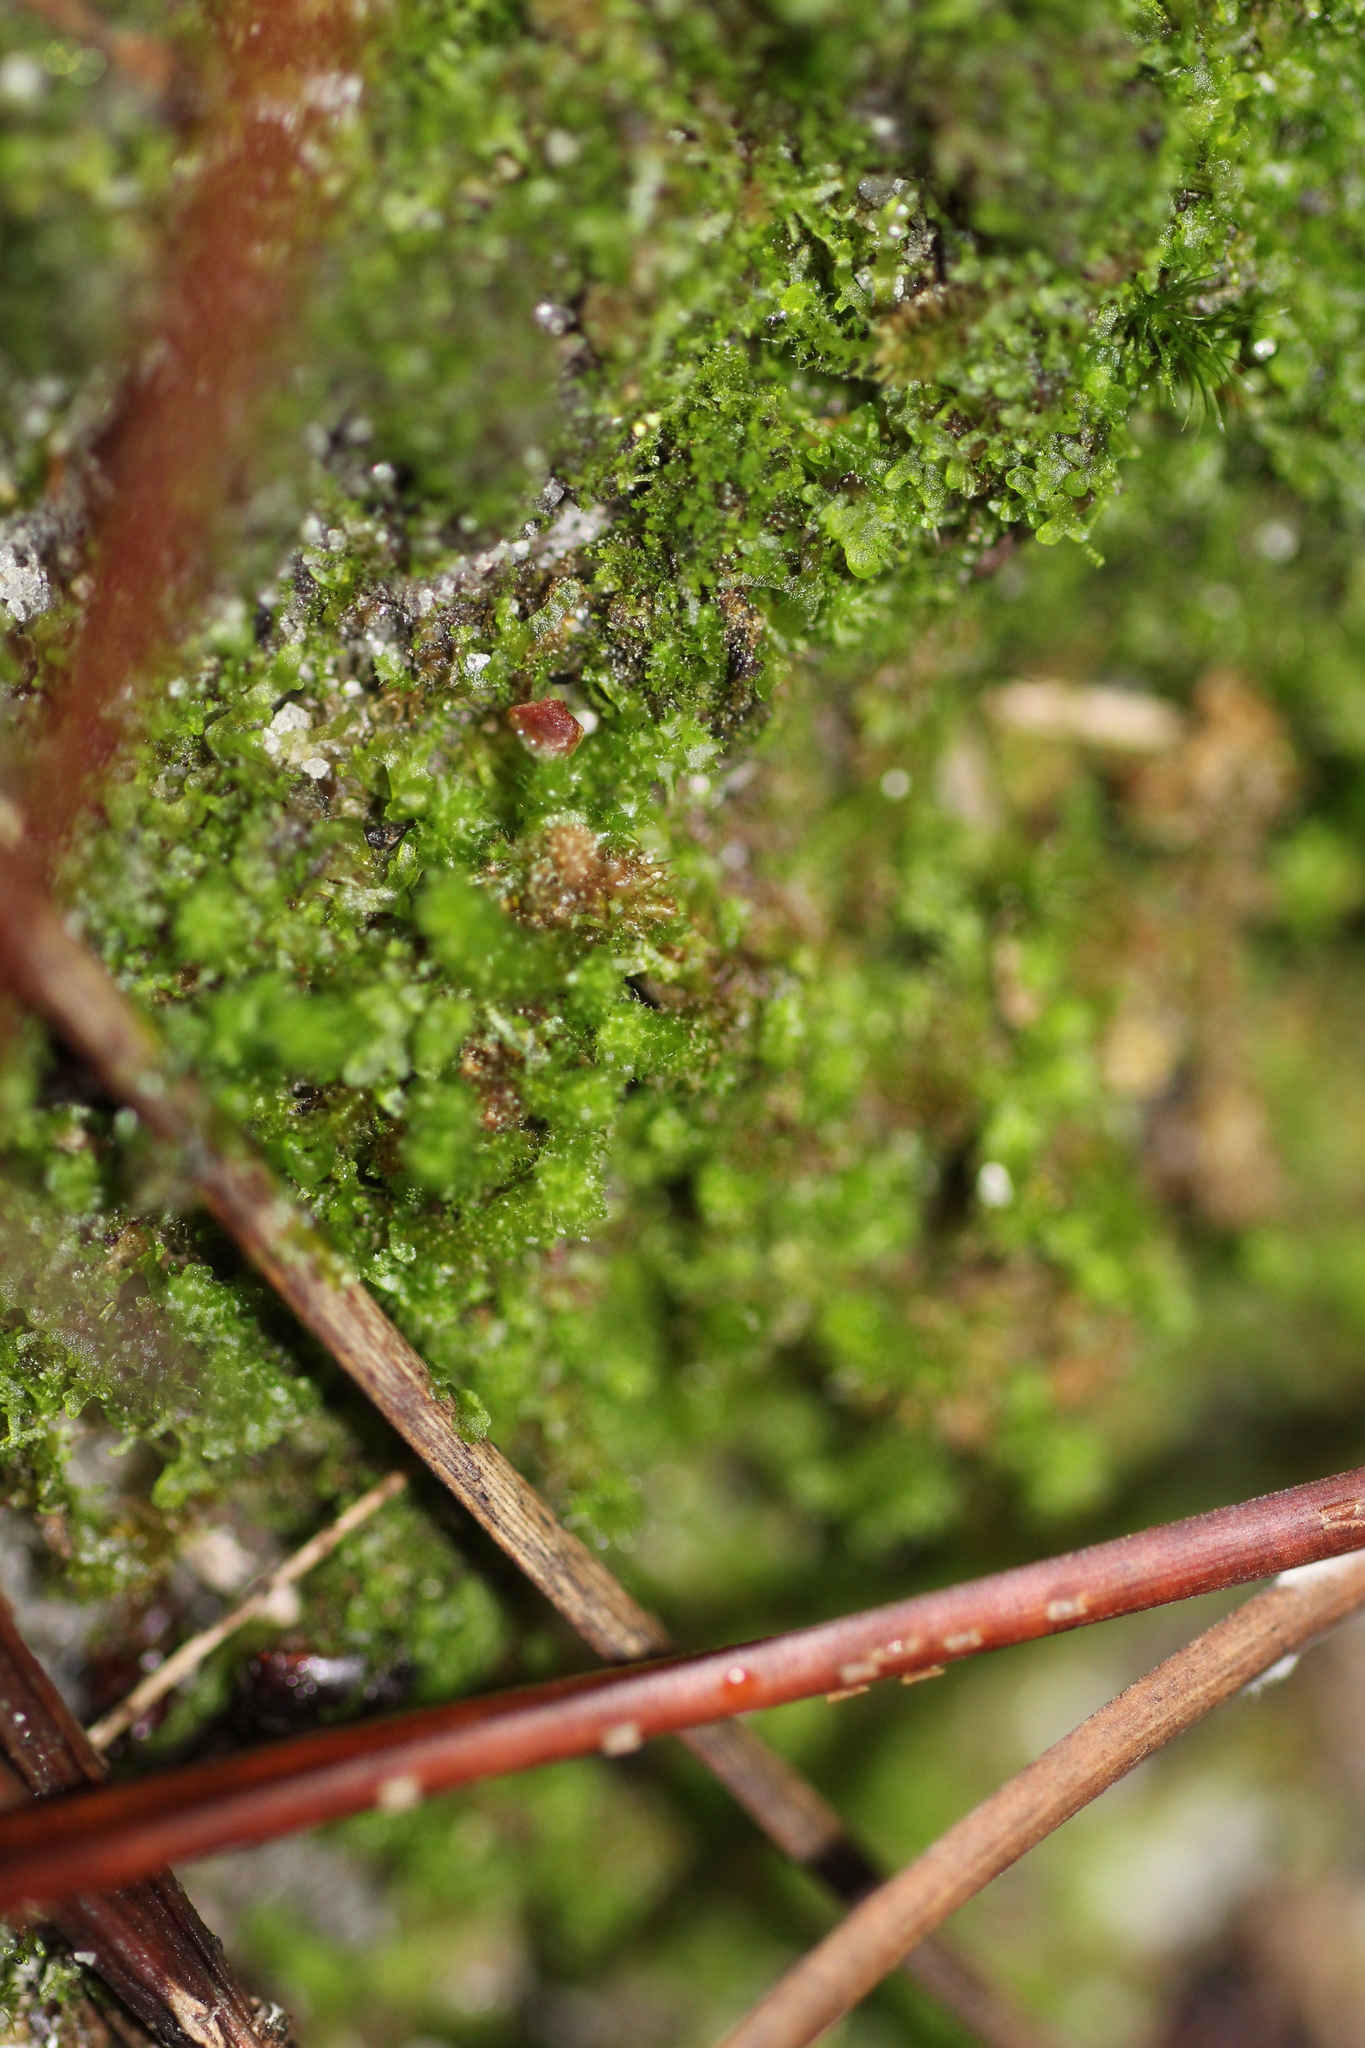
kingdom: Plantae
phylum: Marchantiophyta
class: Jungermanniopsida
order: Jungermanniales
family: Cephaloziellaceae
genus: Chaetophyllopsis
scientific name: Chaetophyllopsis whiteleggei
